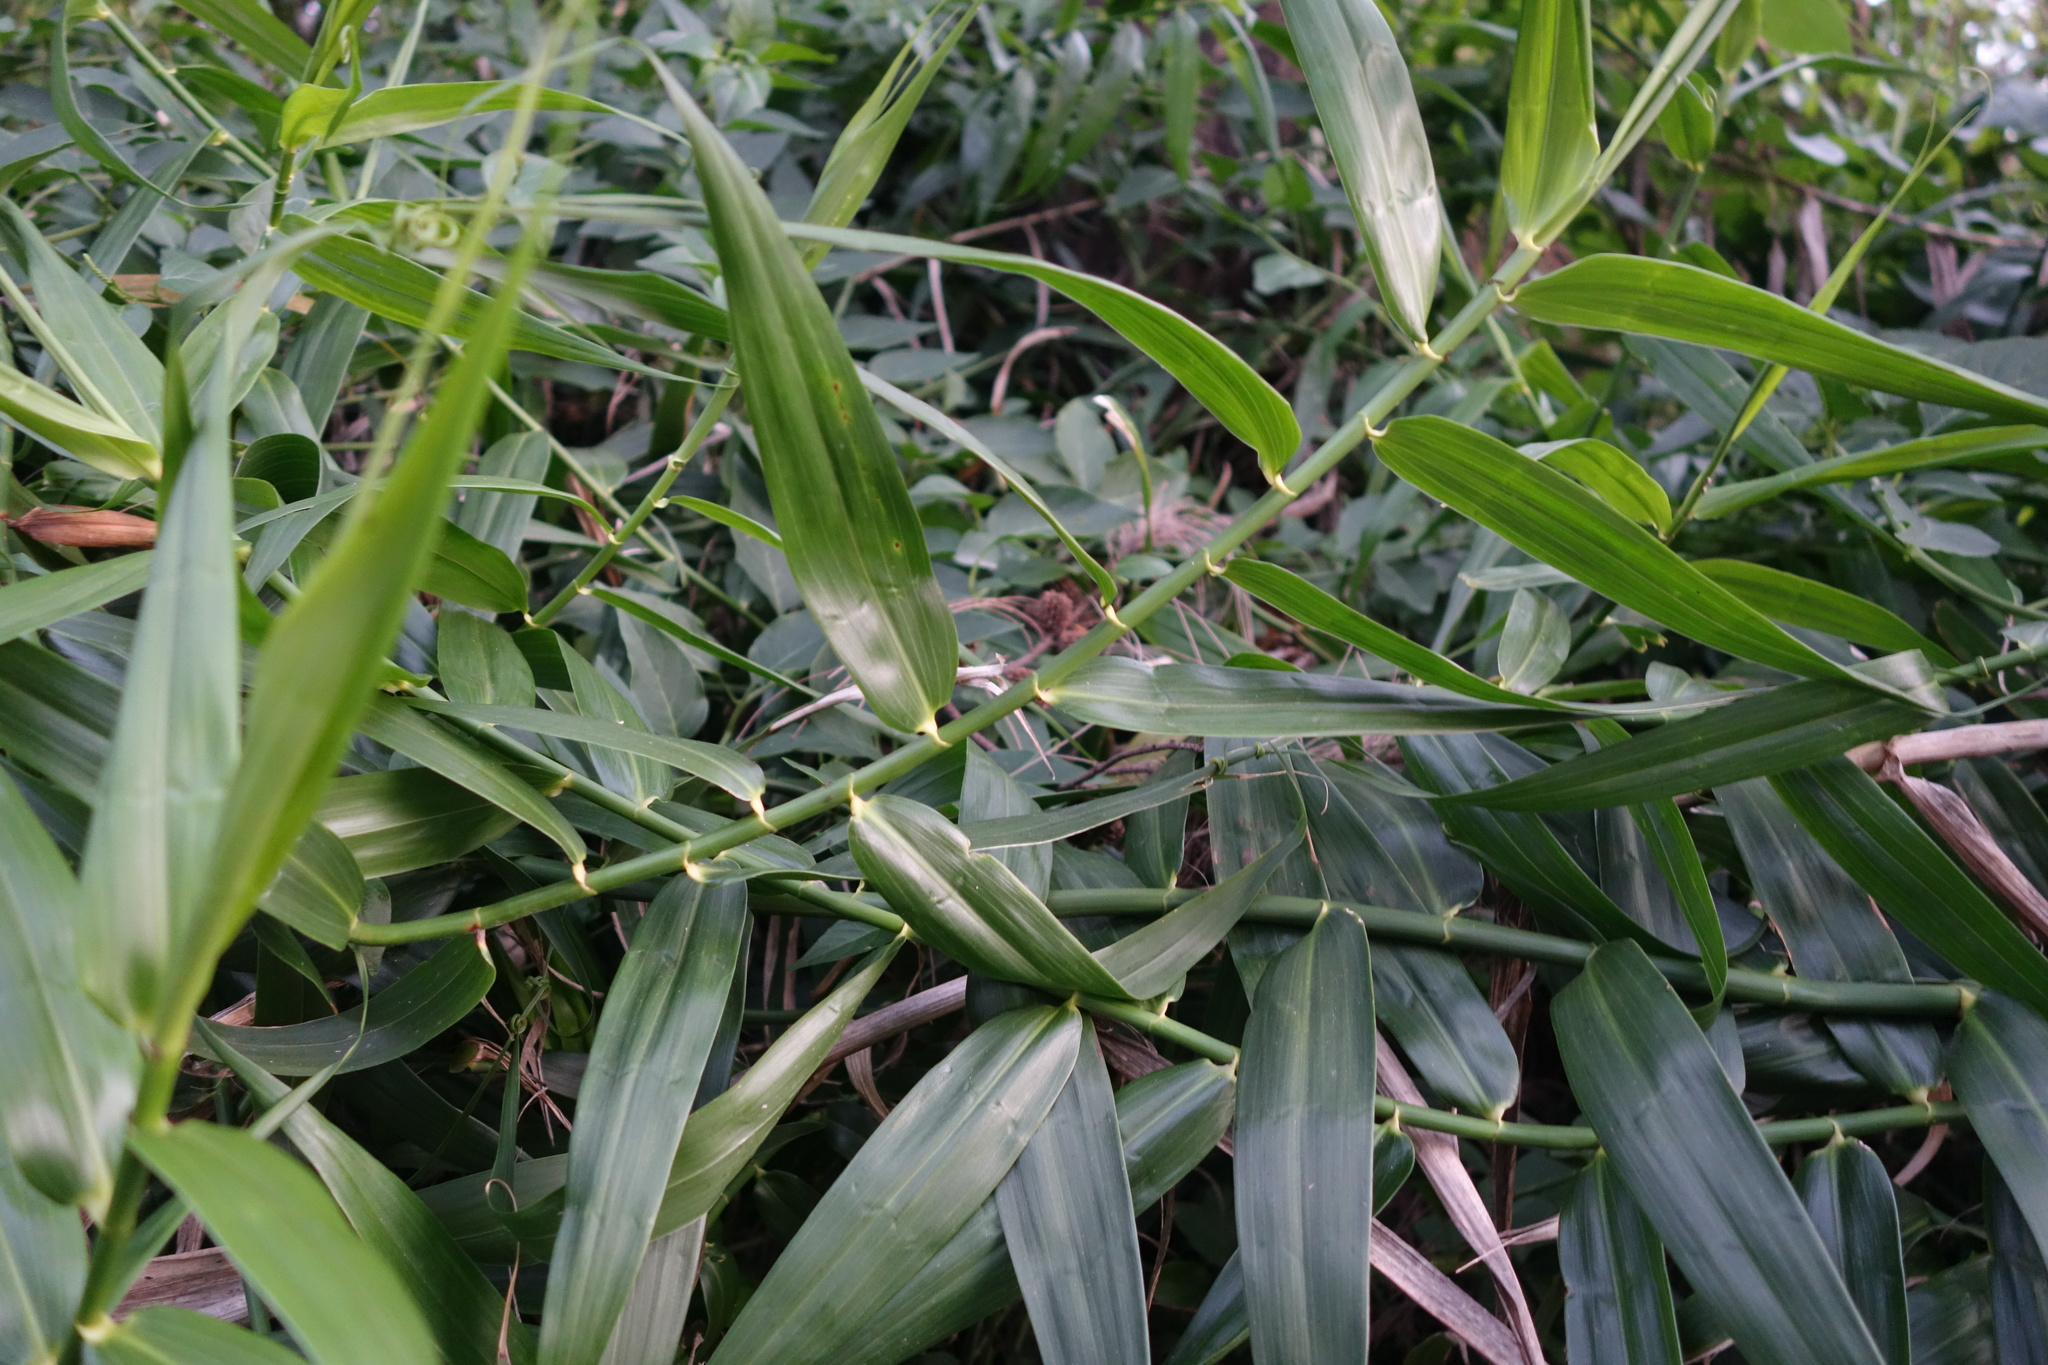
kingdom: Plantae
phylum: Tracheophyta
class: Liliopsida
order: Poales
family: Flagellariaceae
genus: Flagellaria
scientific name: Flagellaria indica
